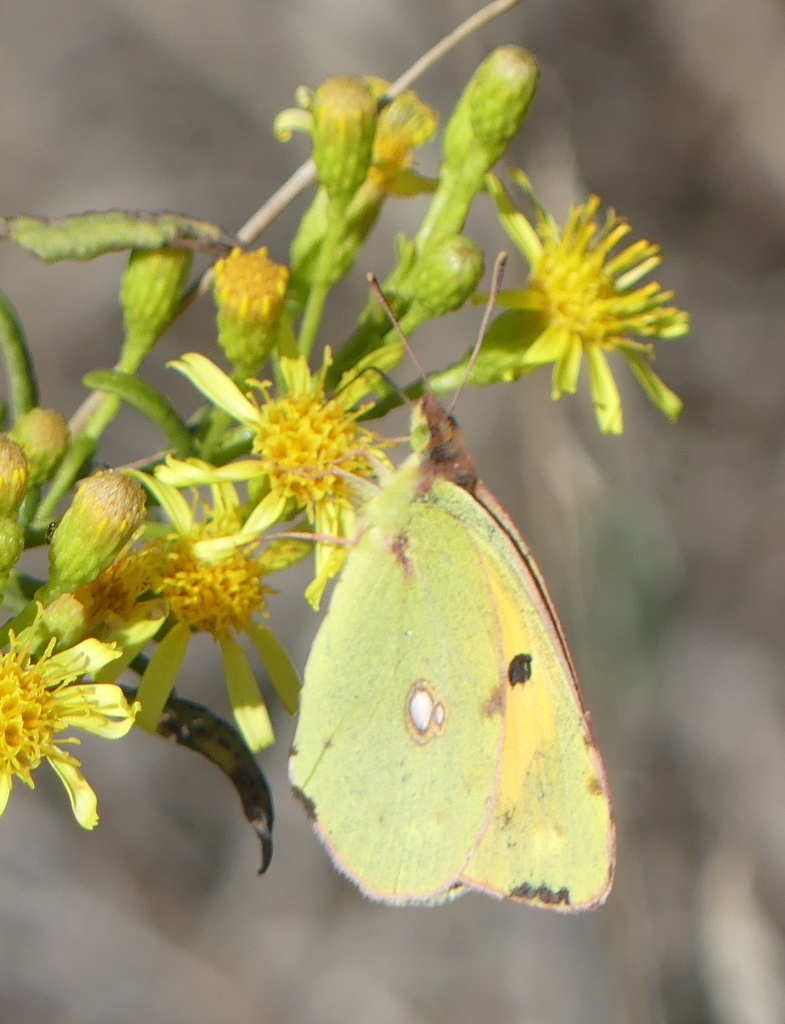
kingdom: Animalia
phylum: Arthropoda
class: Insecta
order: Lepidoptera
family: Pieridae
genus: Colias
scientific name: Colias croceus
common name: Clouded yellow
